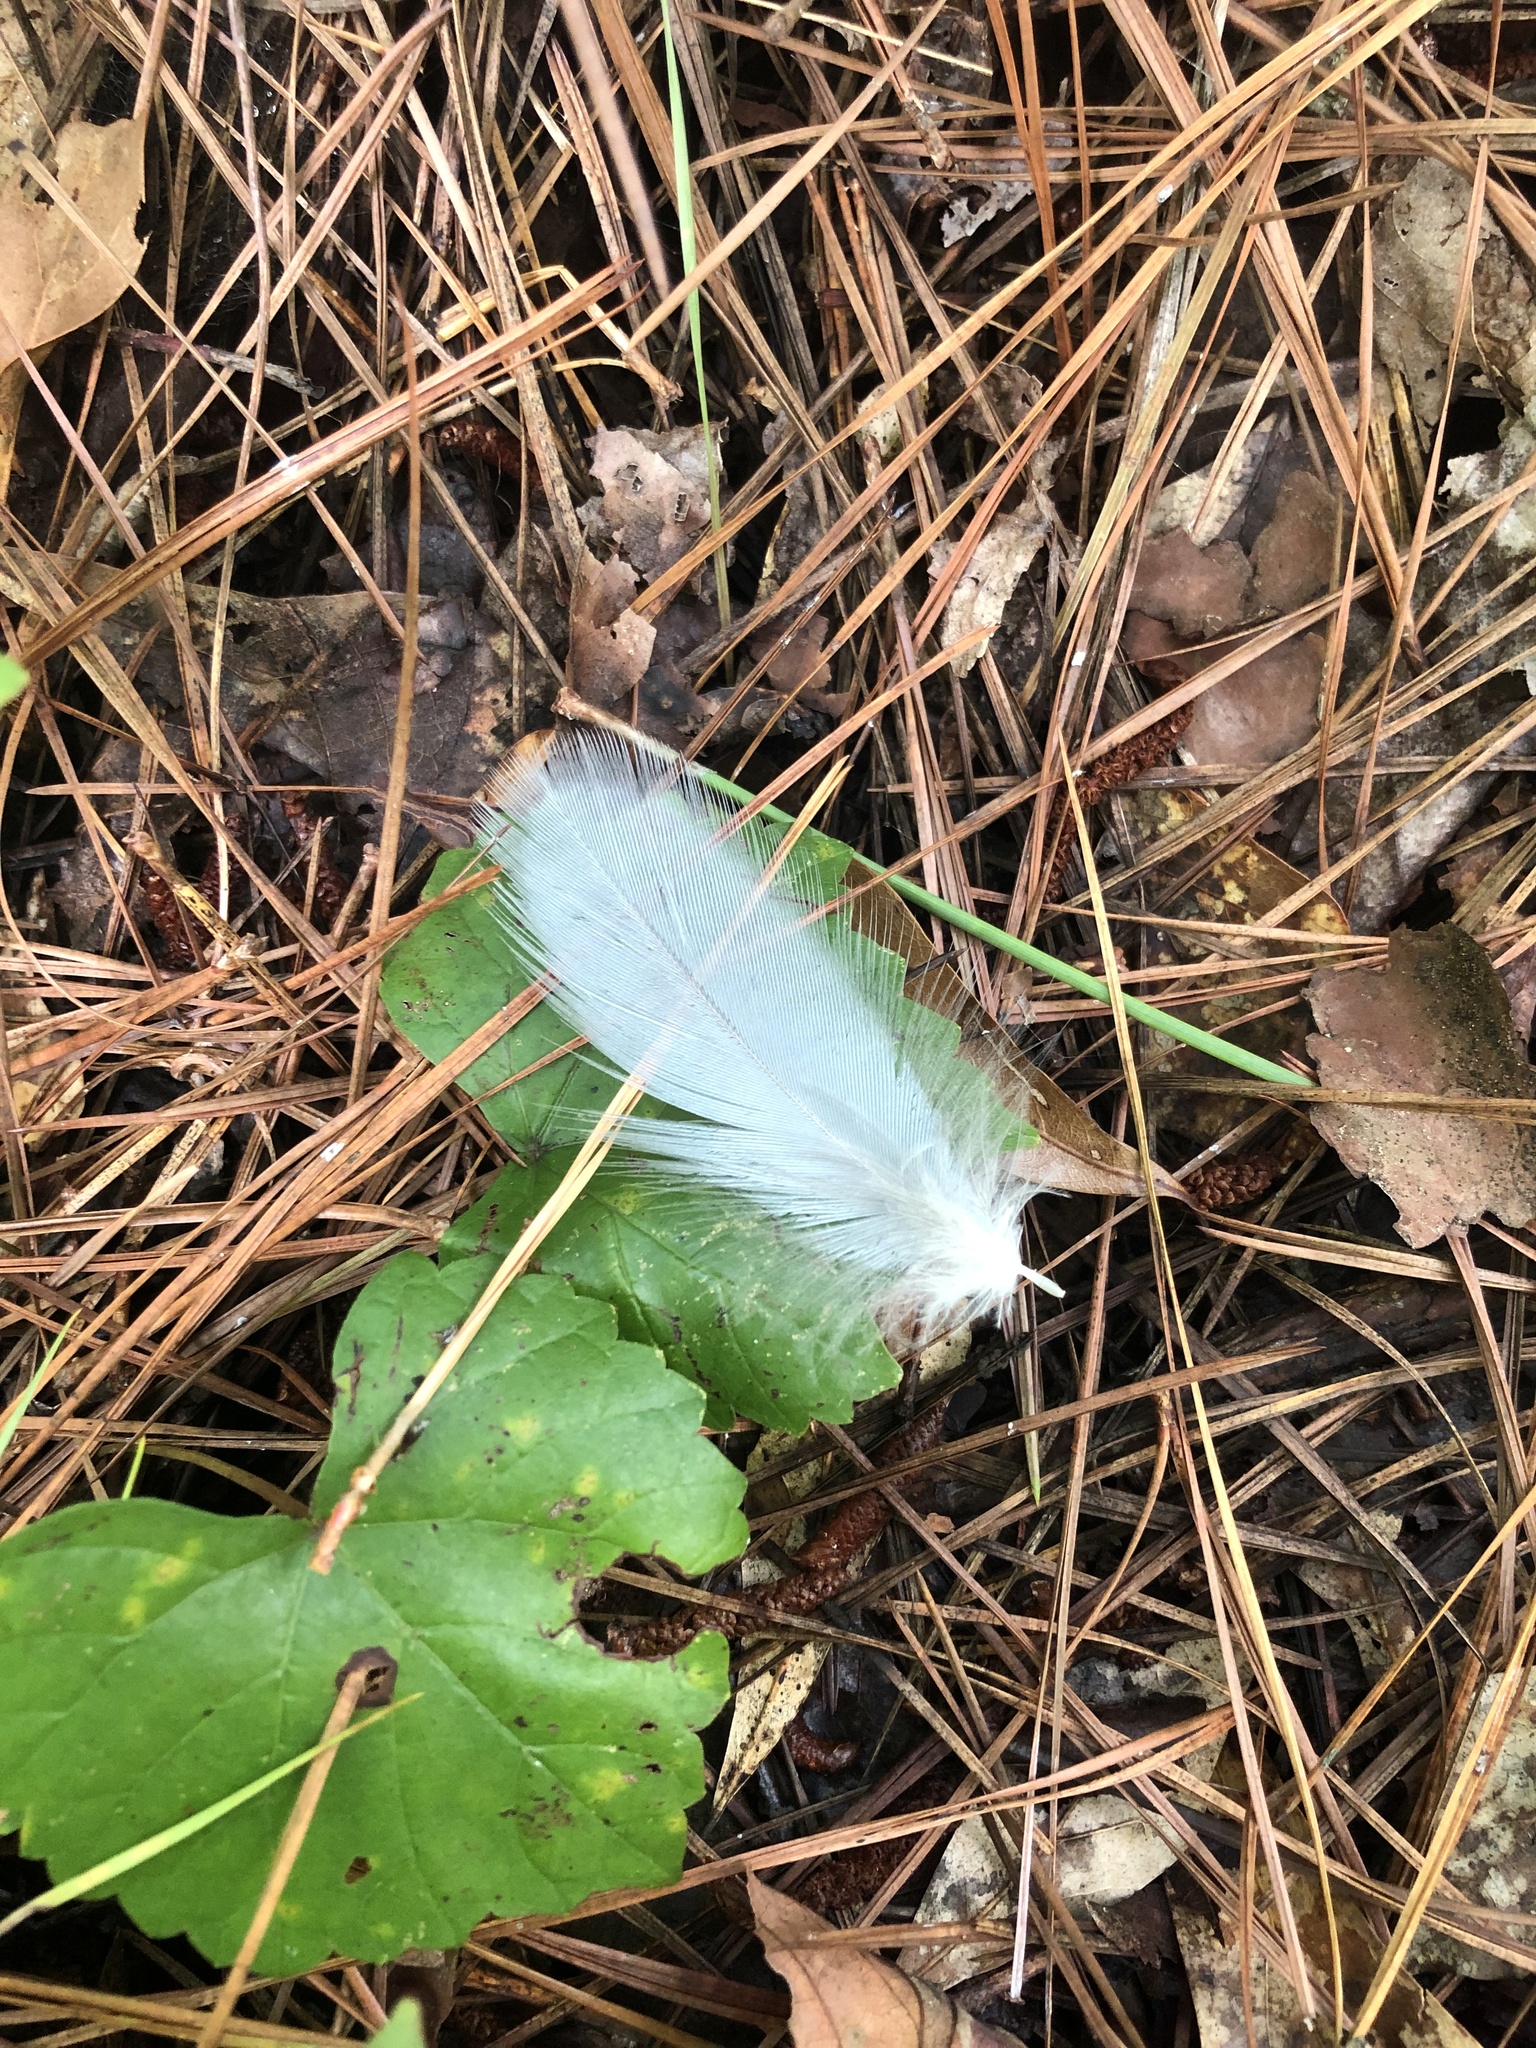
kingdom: Animalia
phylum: Chordata
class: Aves
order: Pelecaniformes
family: Ardeidae
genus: Ardea
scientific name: Ardea herodias
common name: Great blue heron
